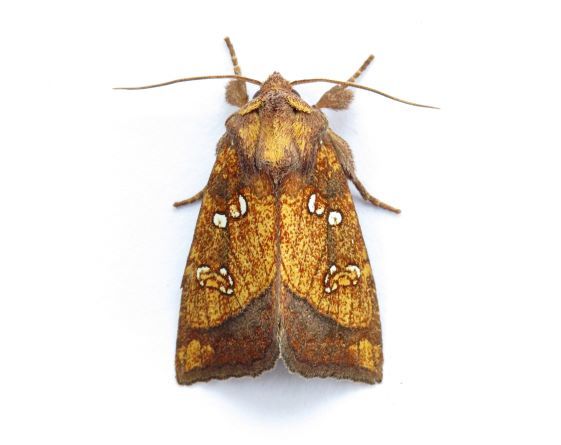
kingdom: Animalia
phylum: Arthropoda
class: Insecta
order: Lepidoptera
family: Noctuidae
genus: Papaipema
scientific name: Papaipema arctivorens
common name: Northern burdock borer moth
